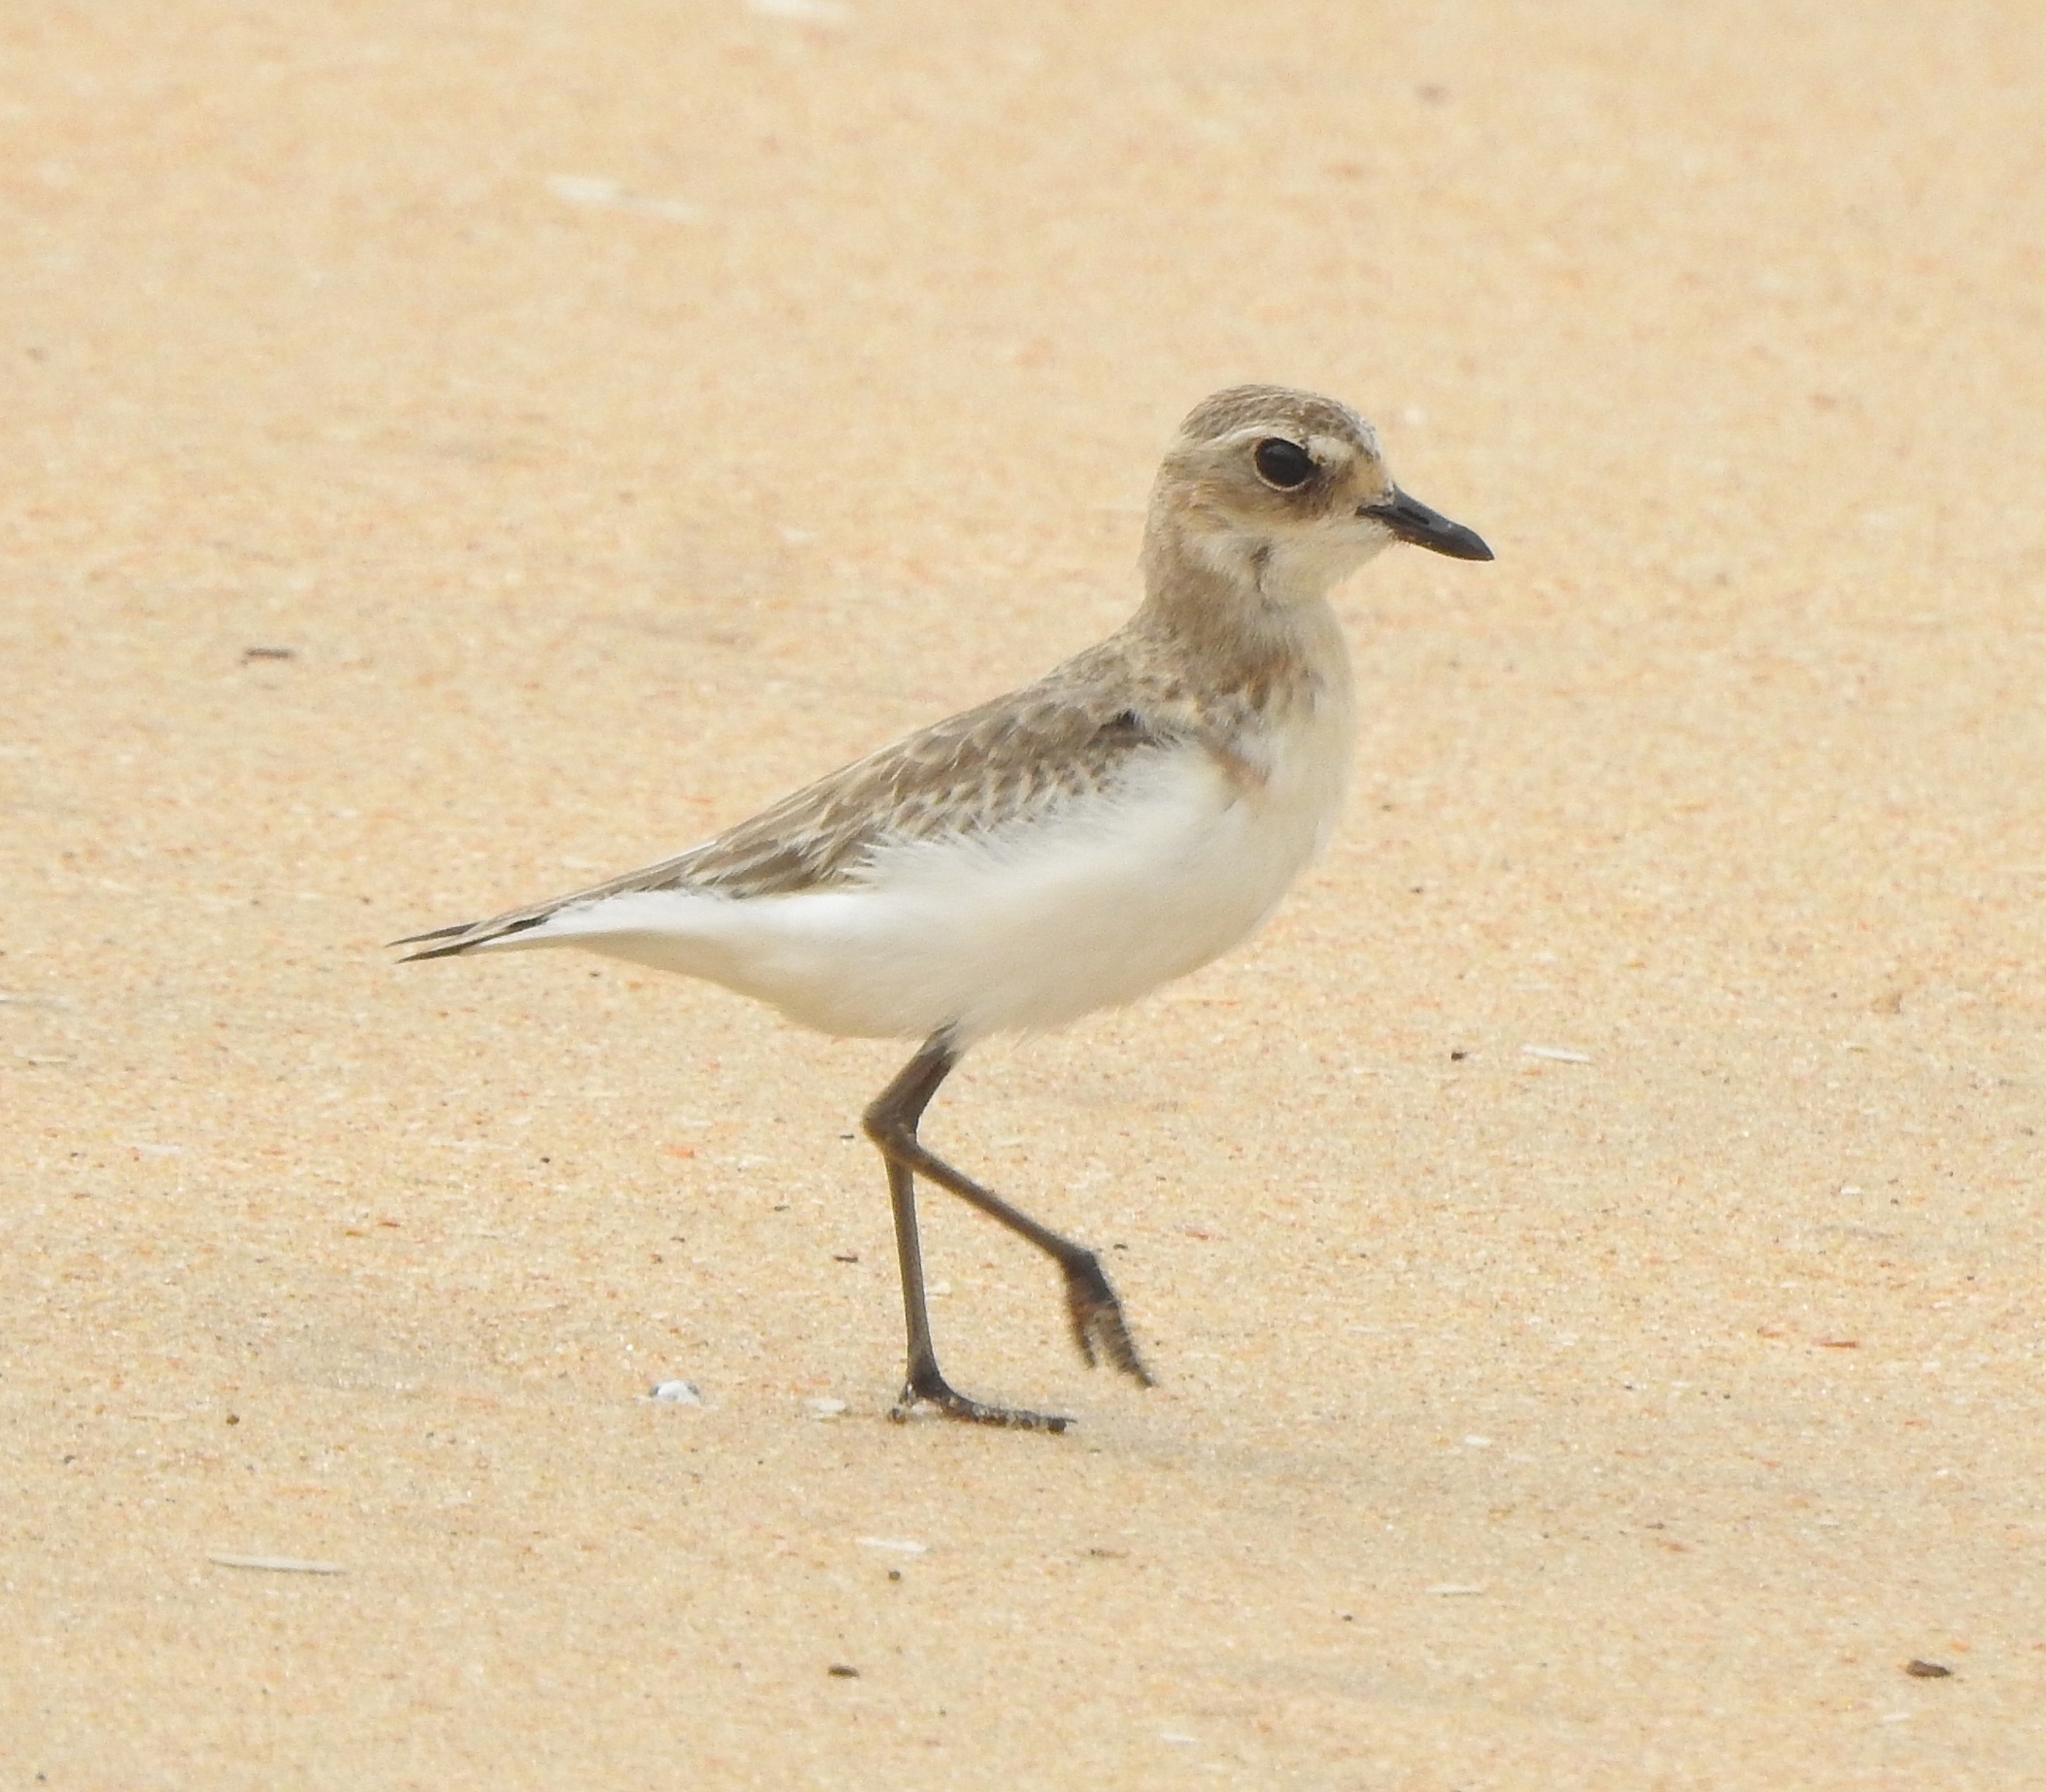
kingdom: Animalia
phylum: Chordata
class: Aves
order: Charadriiformes
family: Charadriidae
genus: Anarhynchus
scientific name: Anarhynchus
